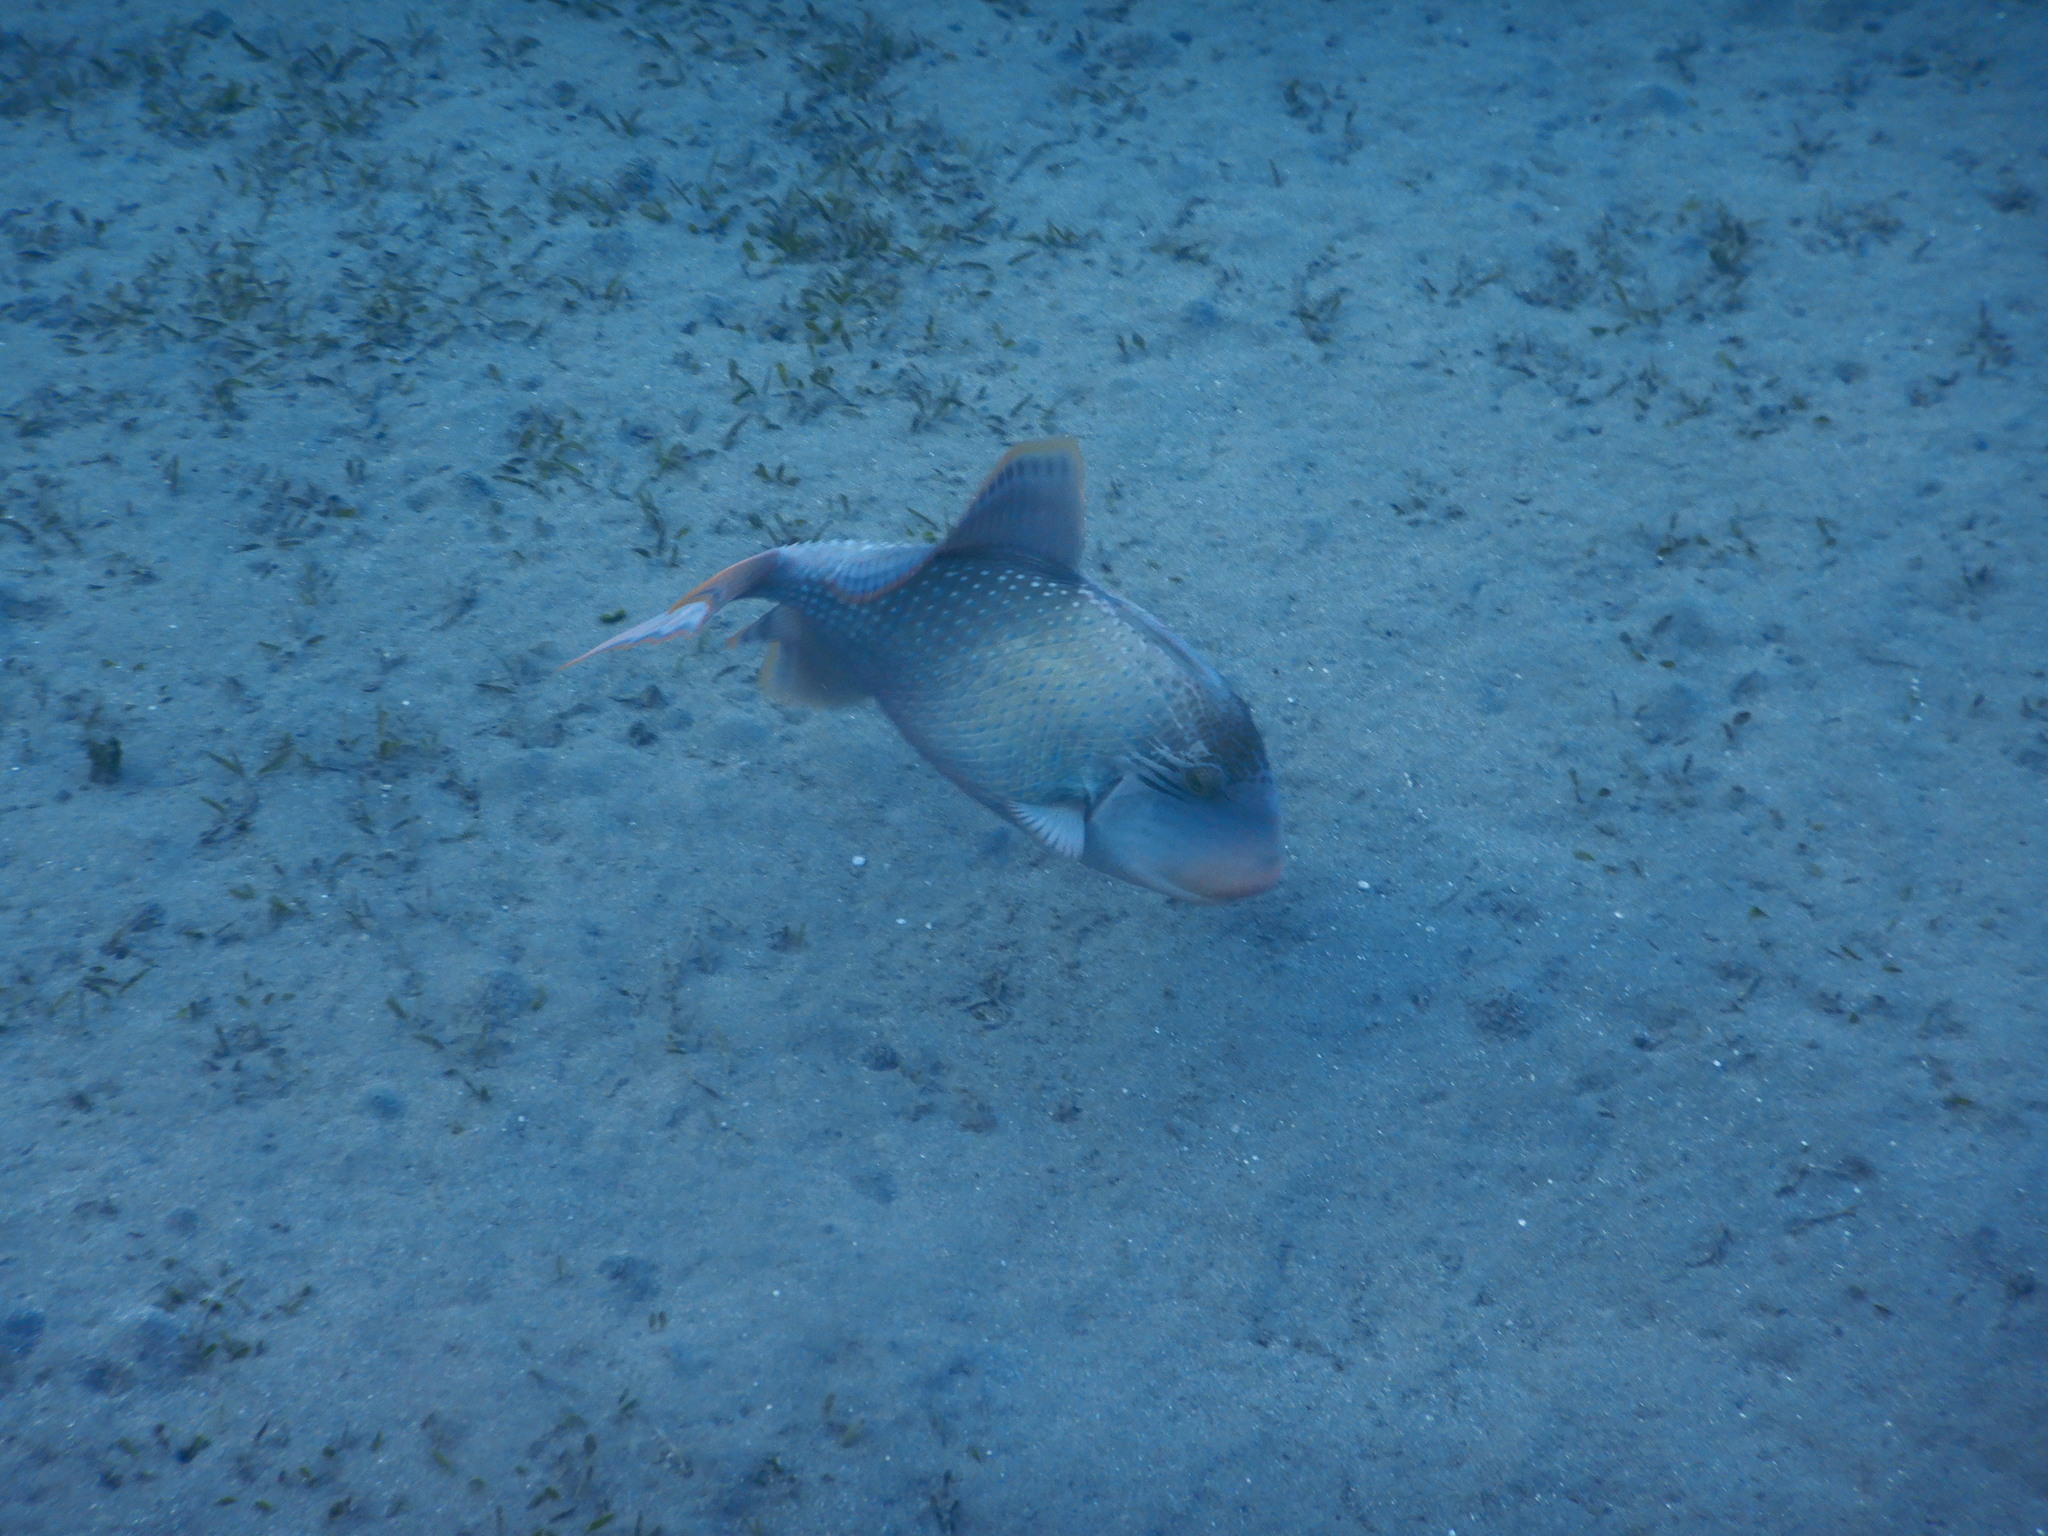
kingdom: Animalia
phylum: Chordata
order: Tetraodontiformes
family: Balistidae
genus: Pseudobalistes
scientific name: Pseudobalistes flavimarginatus
